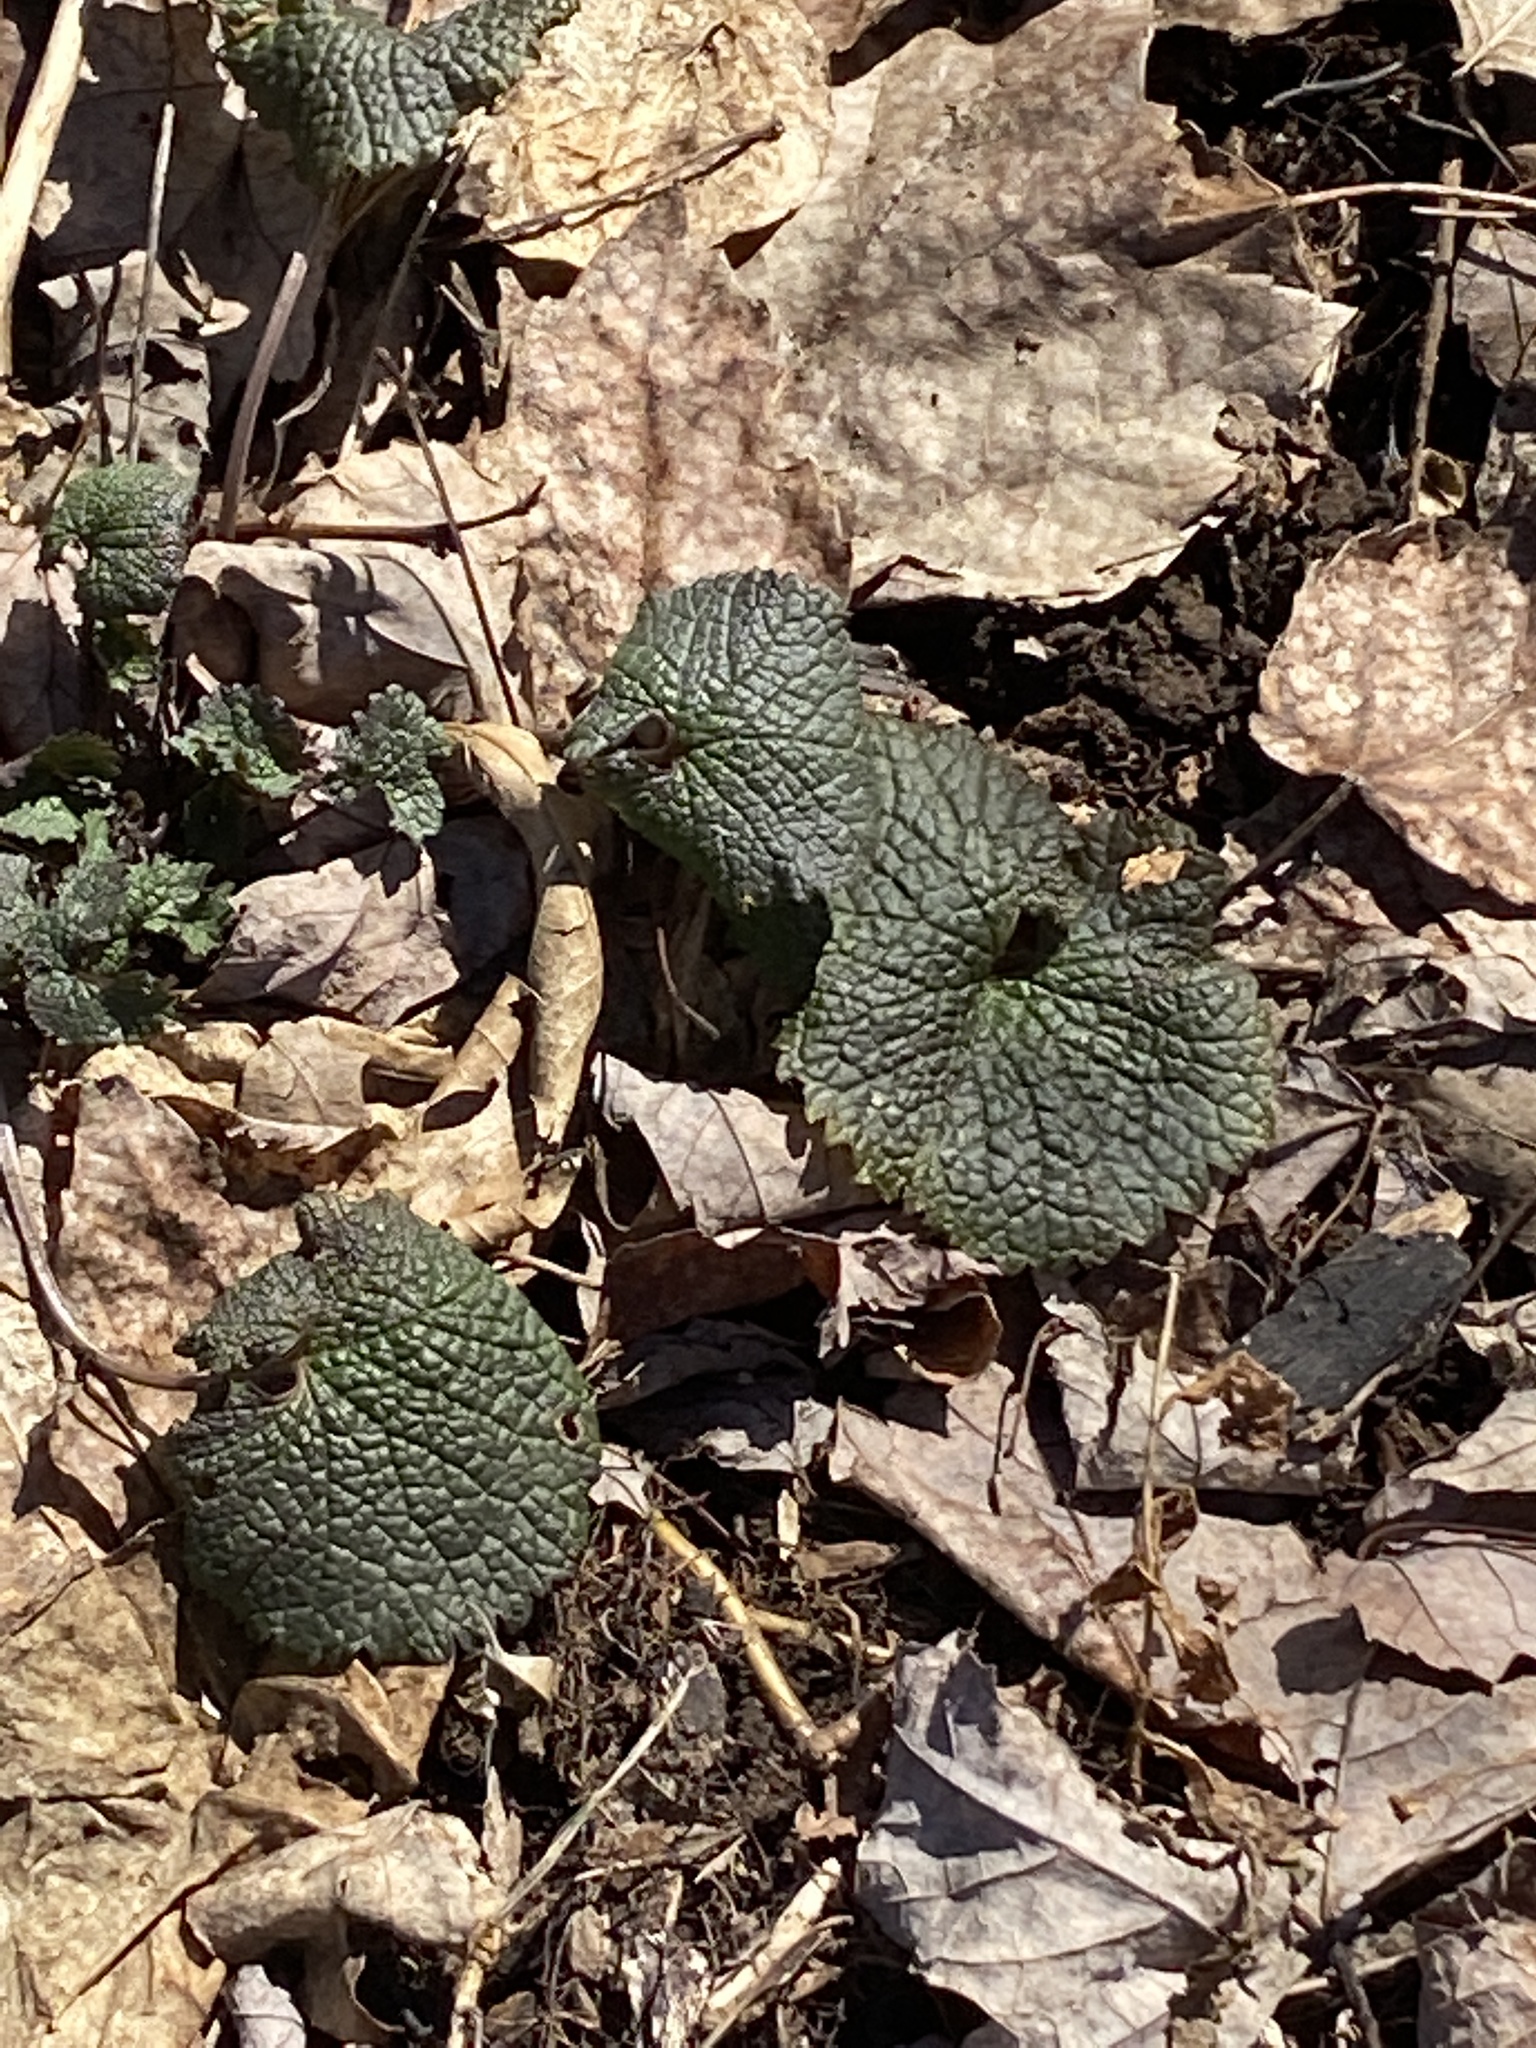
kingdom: Plantae
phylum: Tracheophyta
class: Magnoliopsida
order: Brassicales
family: Brassicaceae
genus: Alliaria
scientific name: Alliaria petiolata
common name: Garlic mustard
